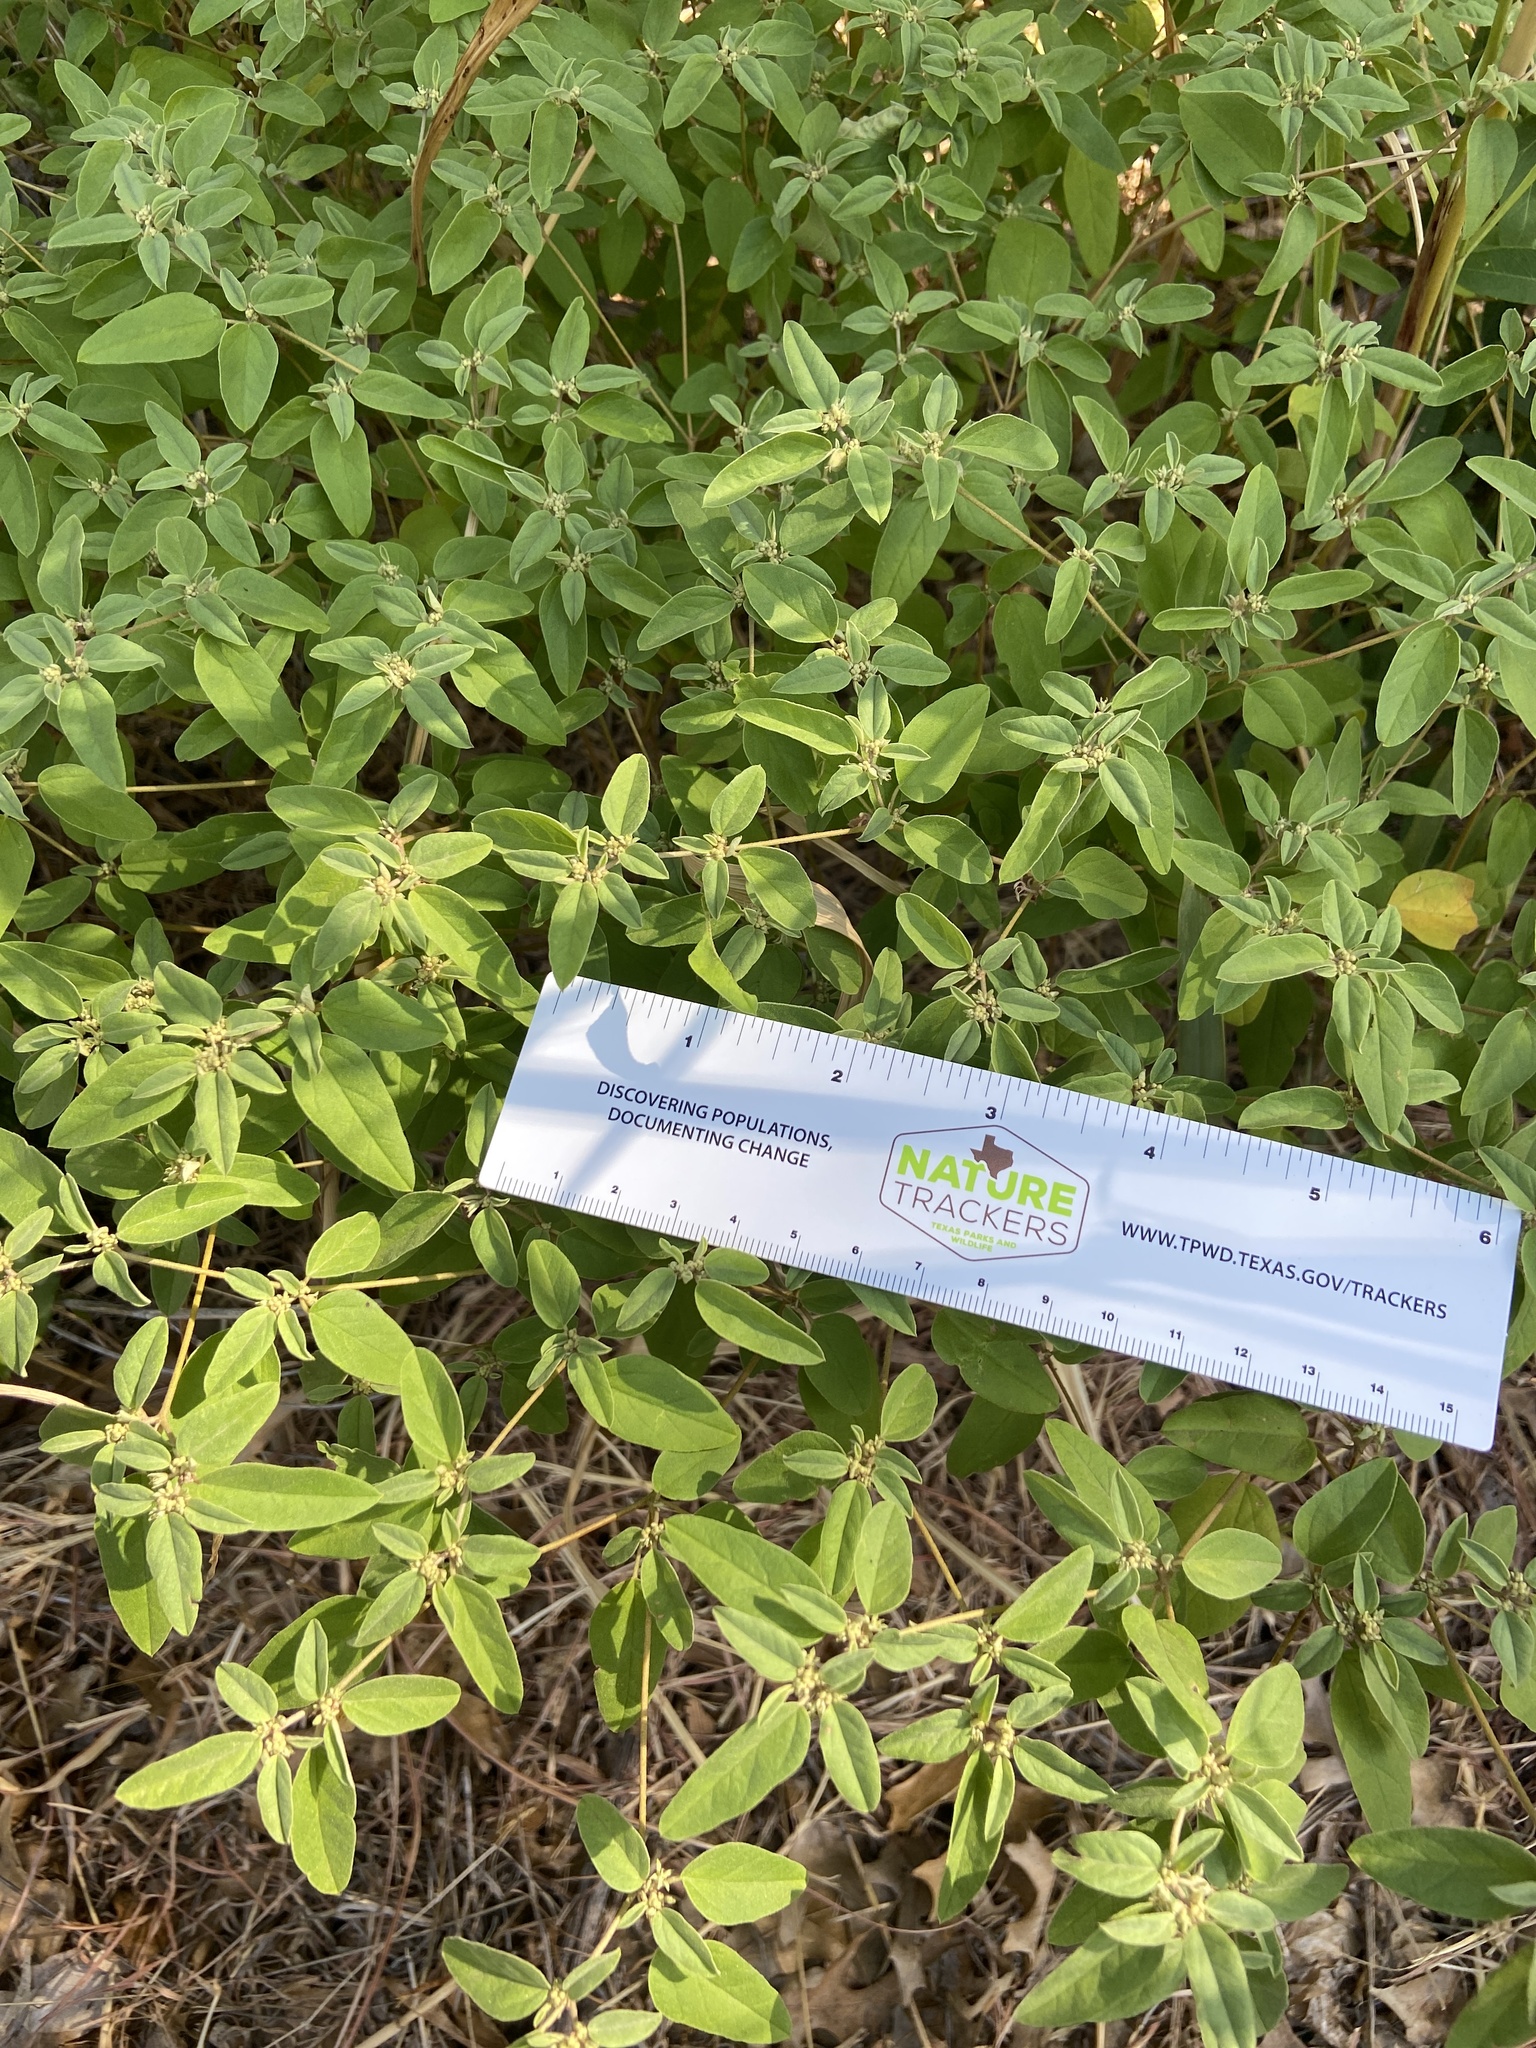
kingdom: Plantae
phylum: Tracheophyta
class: Magnoliopsida
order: Malpighiales
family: Euphorbiaceae
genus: Croton
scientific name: Croton monanthogynus
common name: One-seed croton
